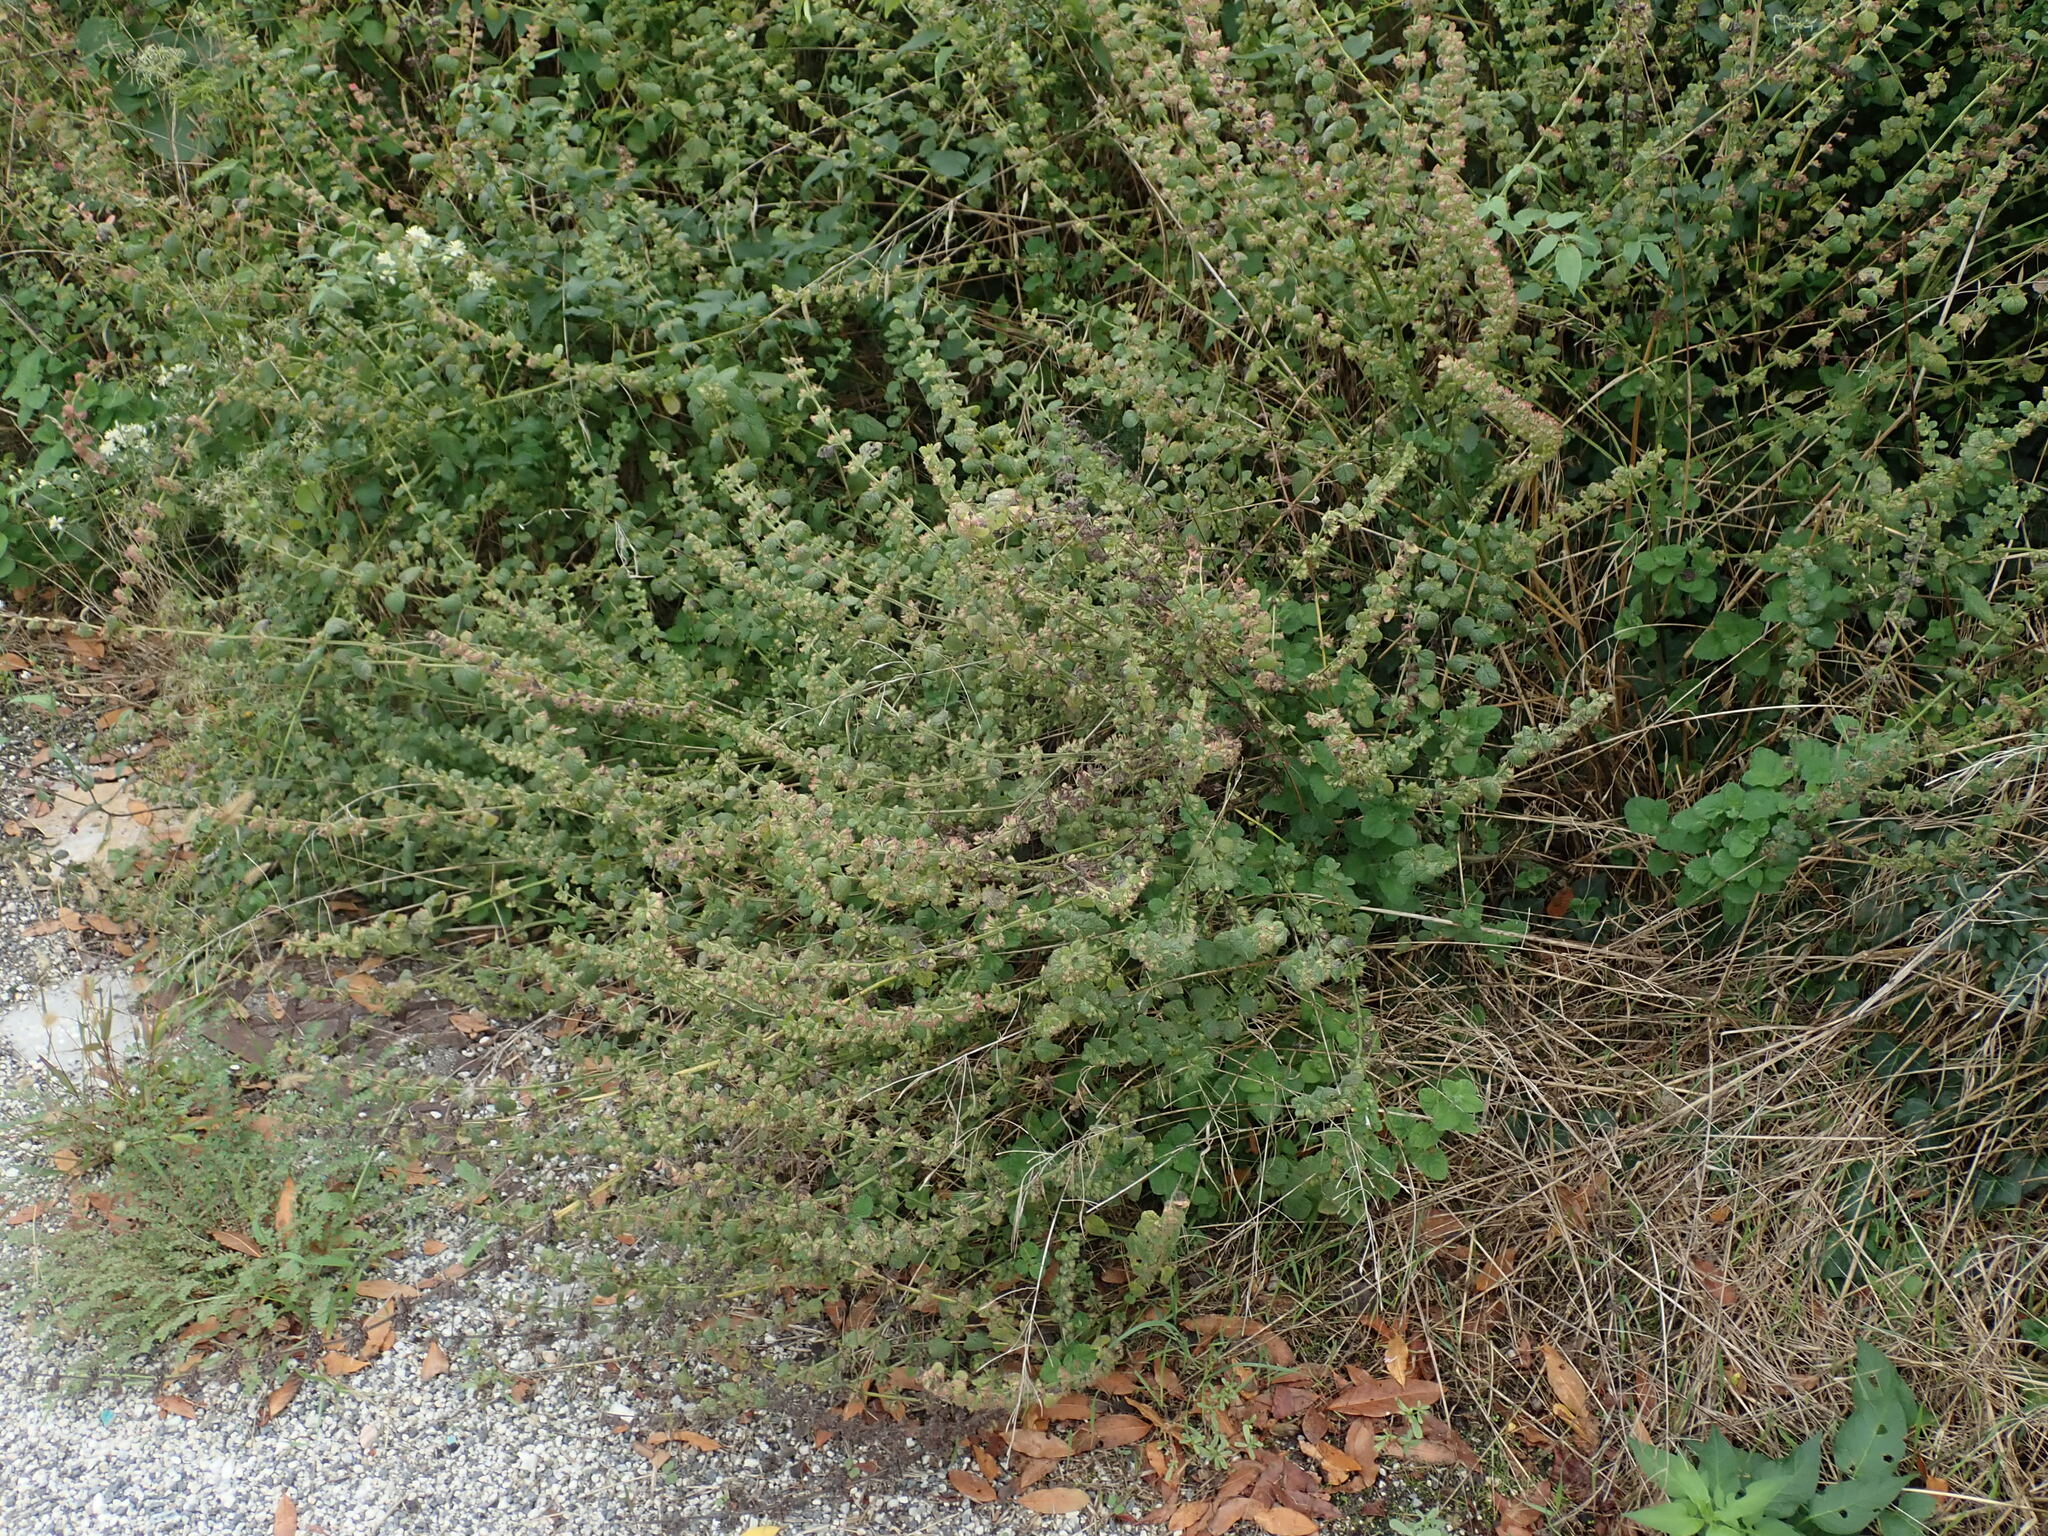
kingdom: Plantae
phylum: Tracheophyta
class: Magnoliopsida
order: Lamiales
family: Lamiaceae
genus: Melissa
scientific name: Melissa officinalis
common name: Balm
